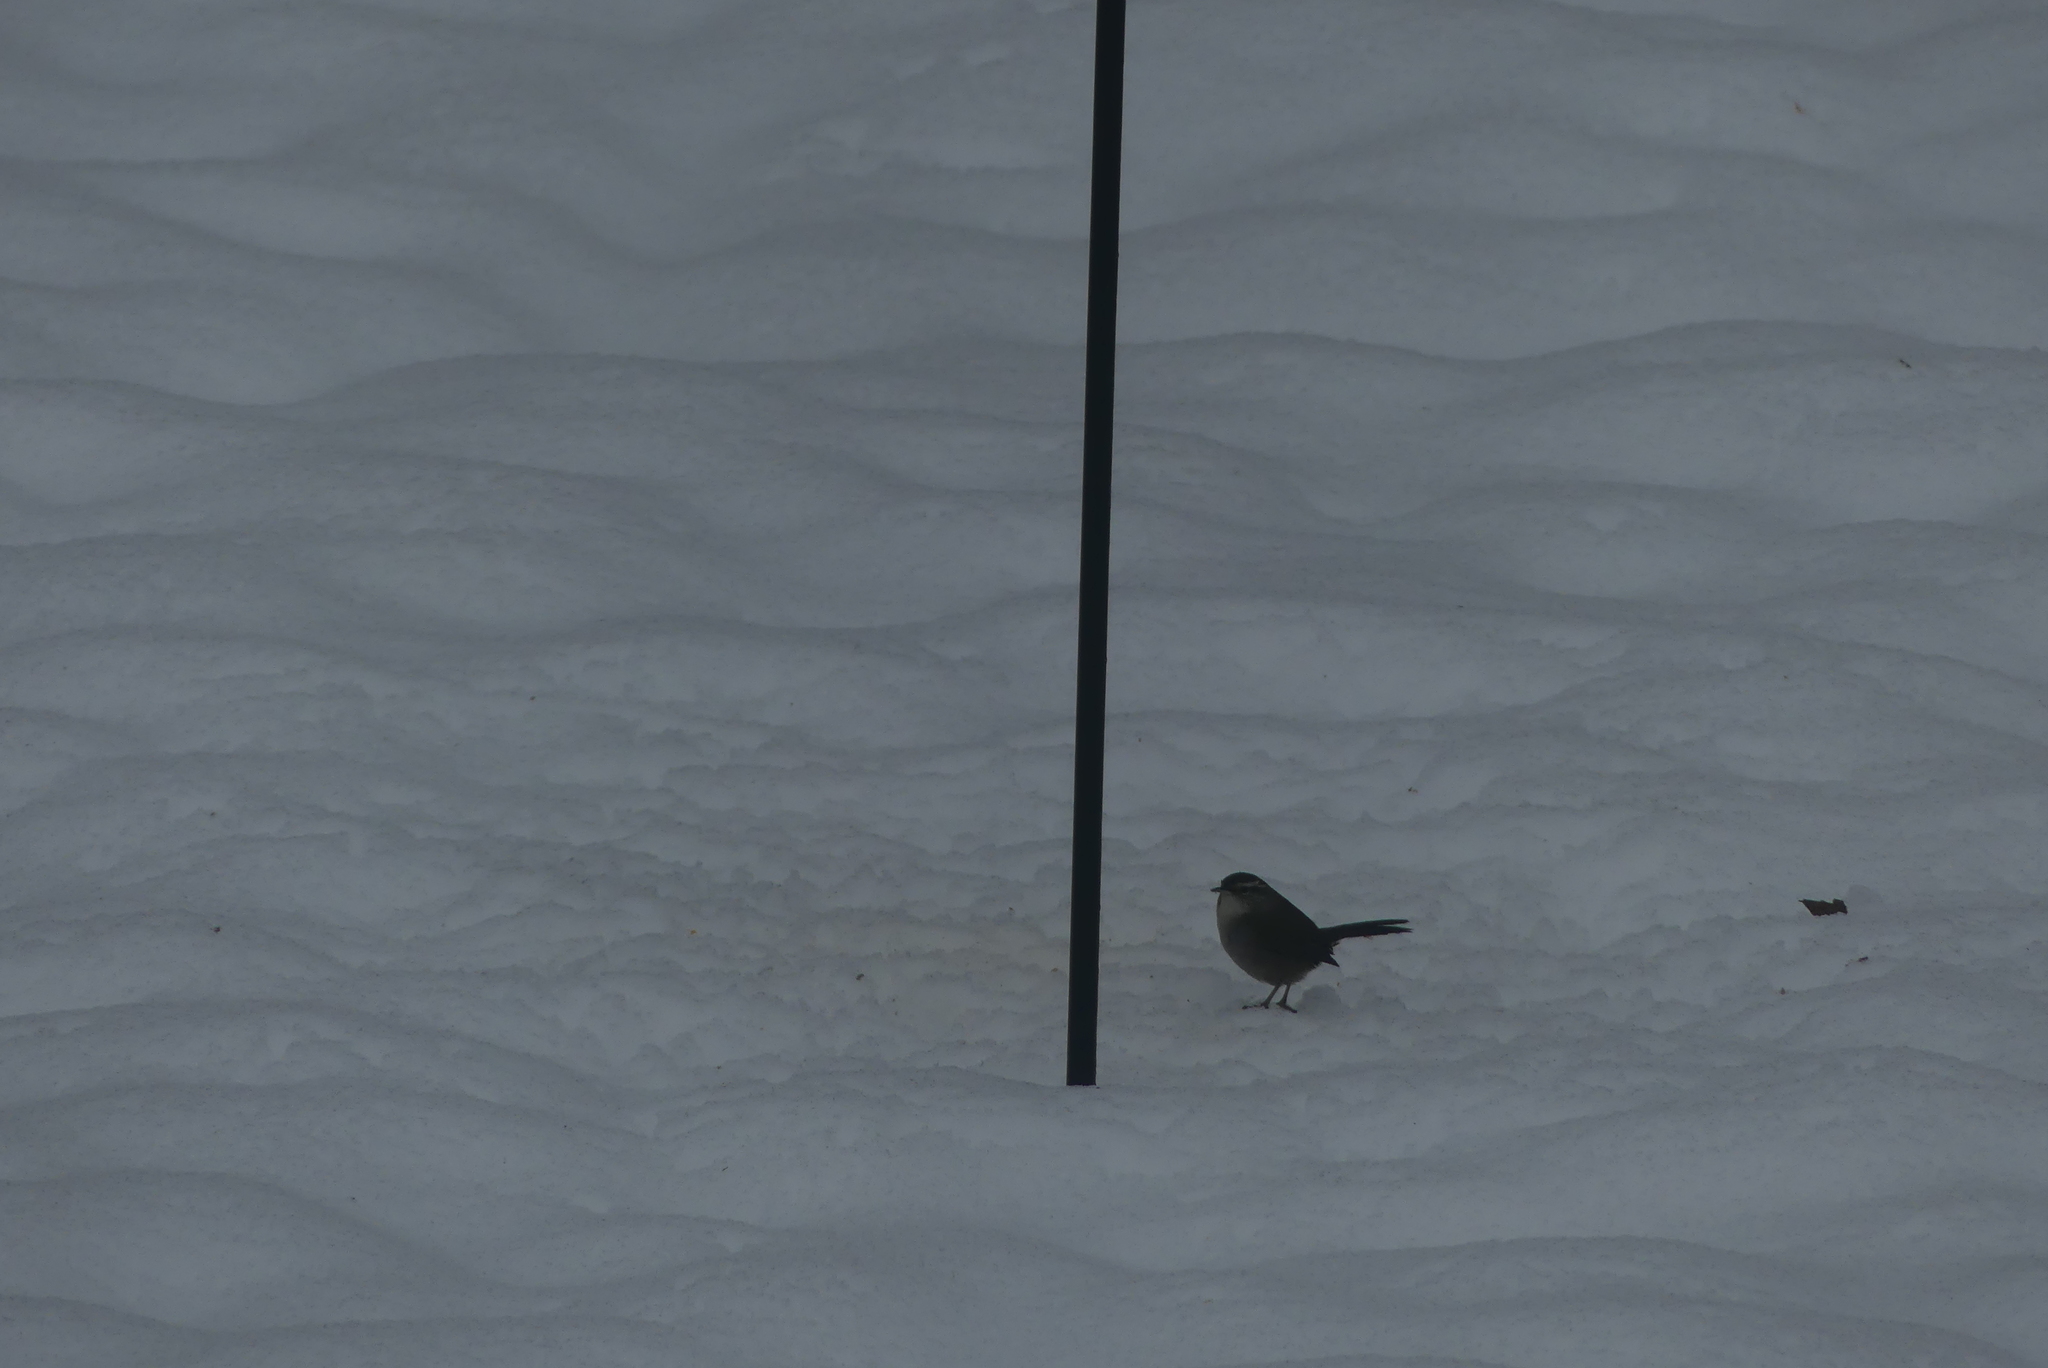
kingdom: Animalia
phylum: Chordata
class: Aves
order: Passeriformes
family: Troglodytidae
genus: Thryomanes
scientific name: Thryomanes bewickii
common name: Bewick's wren
